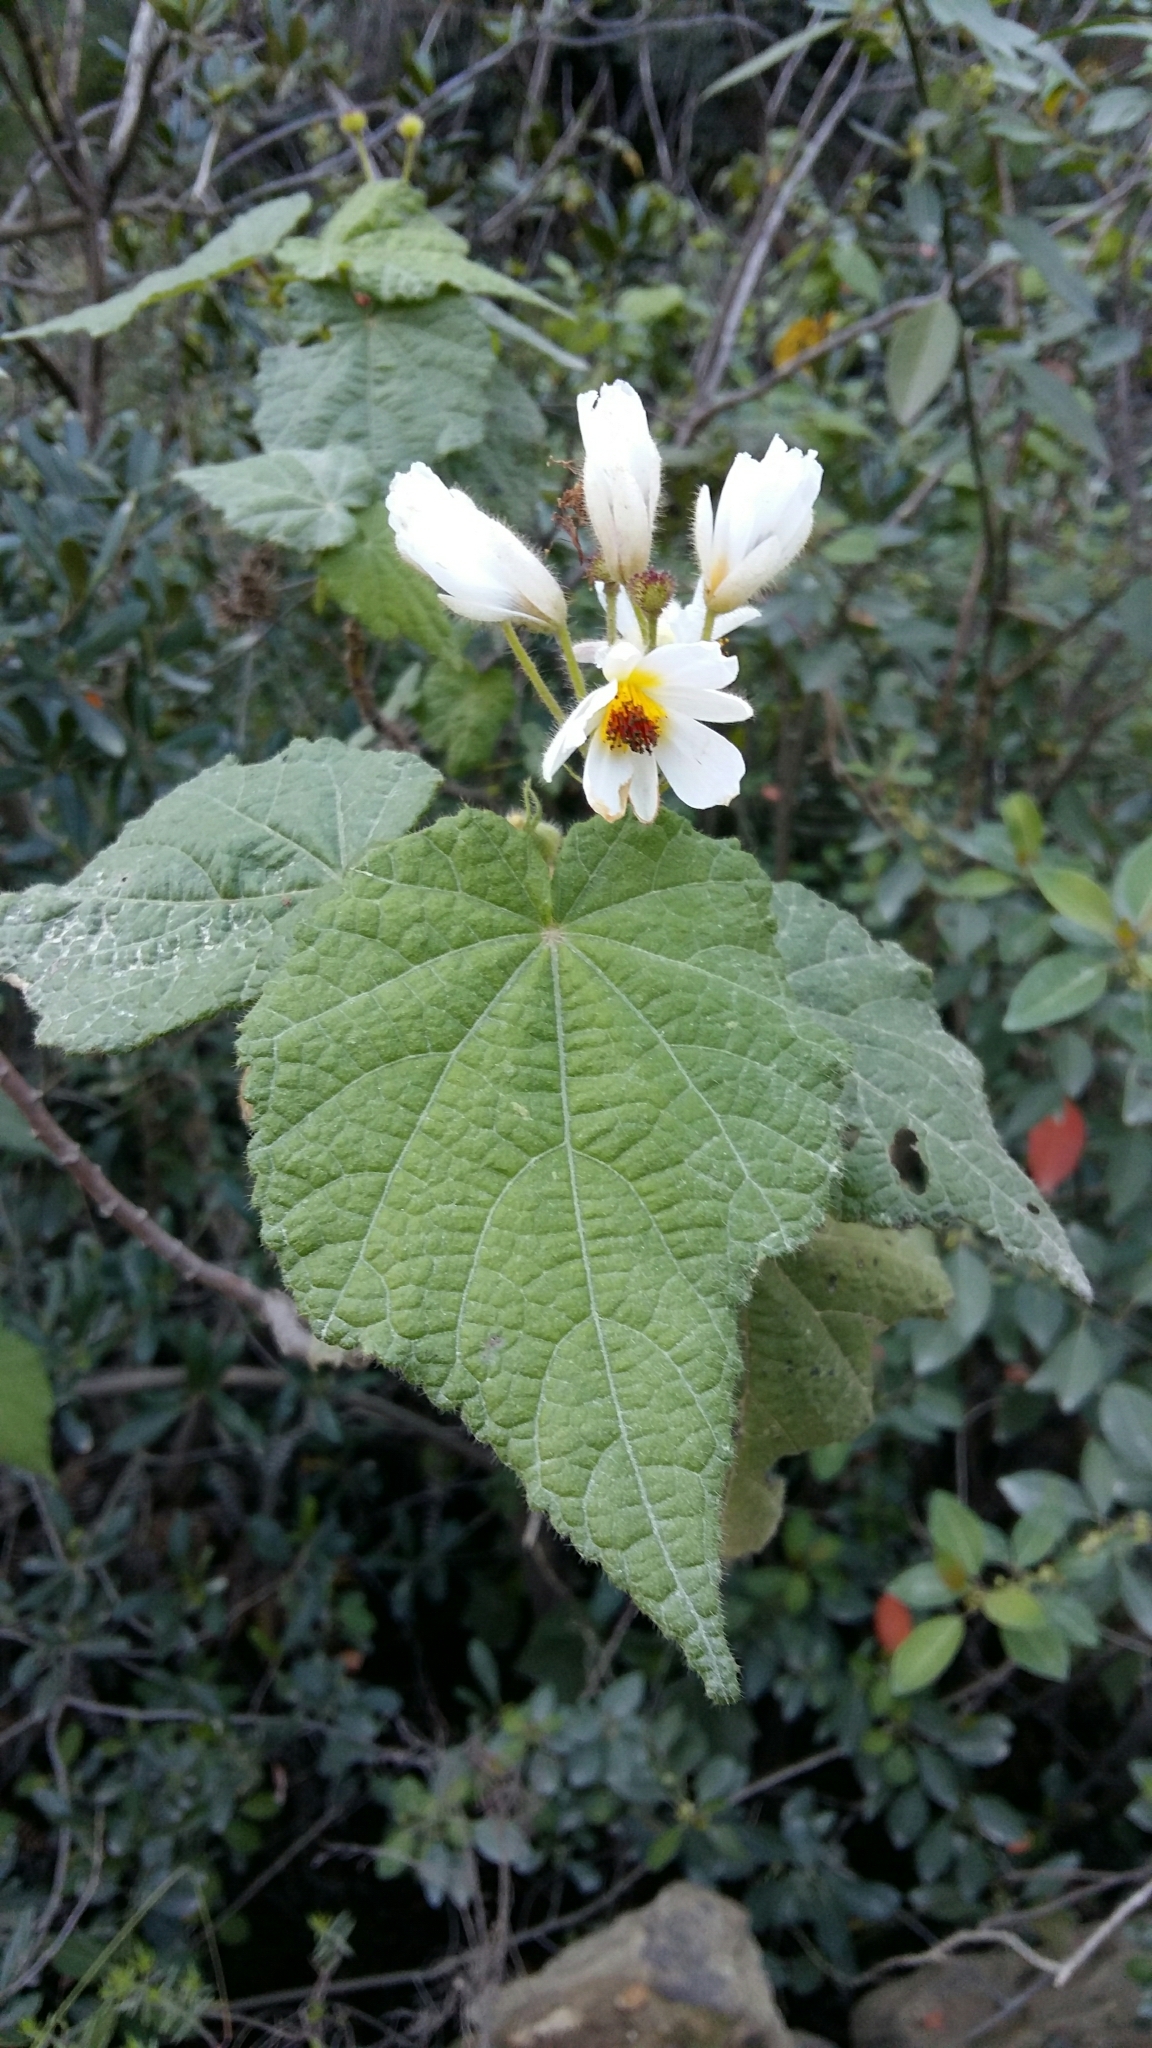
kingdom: Plantae
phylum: Tracheophyta
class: Magnoliopsida
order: Malvales
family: Malvaceae
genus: Sparrmannia
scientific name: Sparrmannia africana
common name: African-hemp
